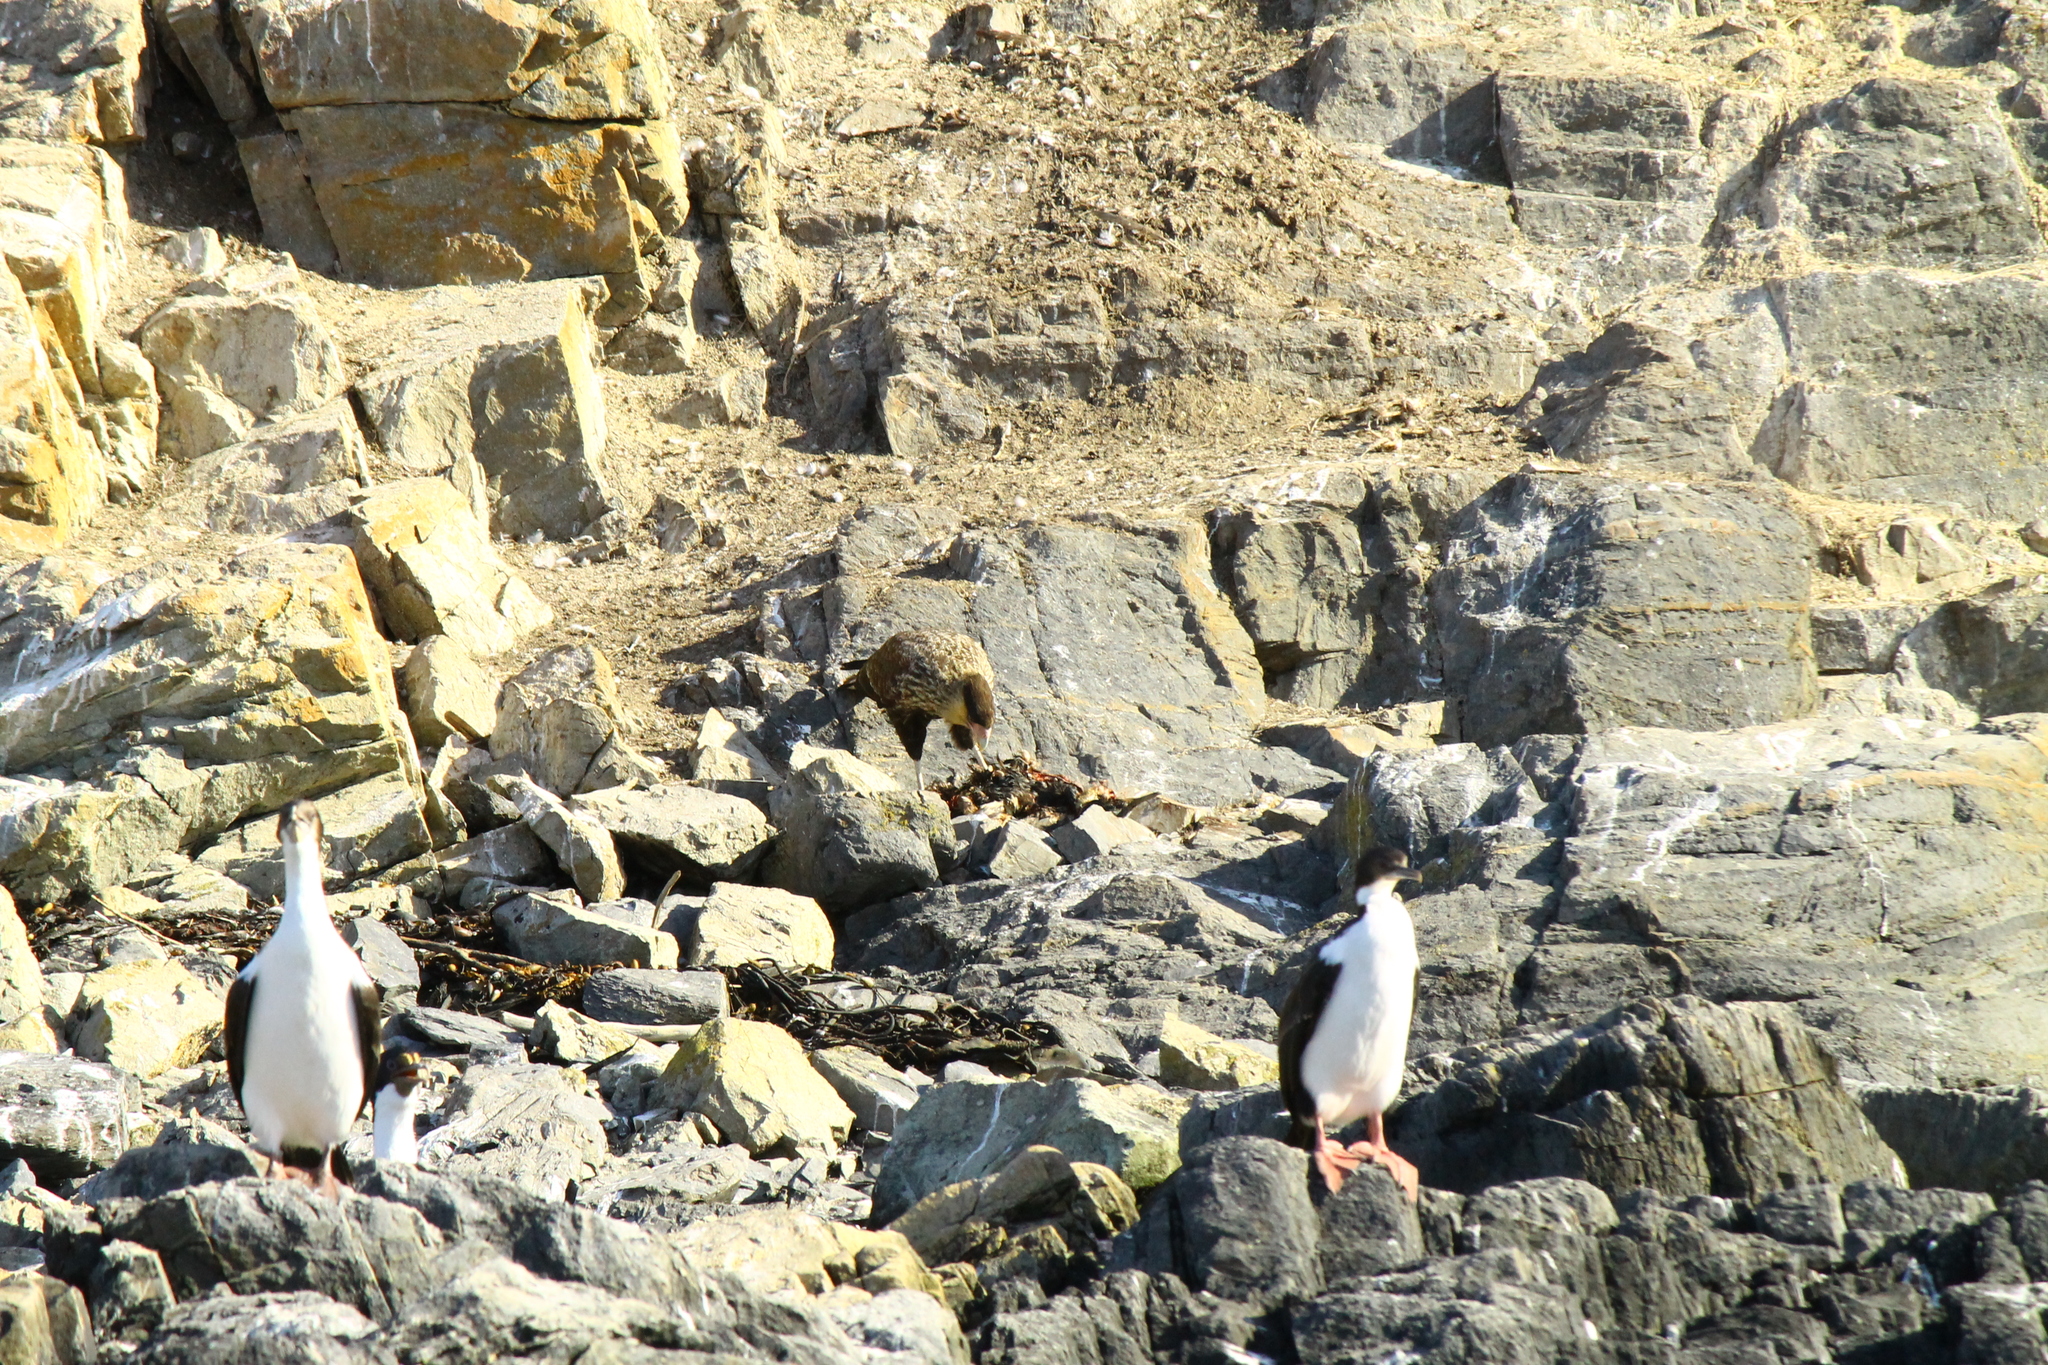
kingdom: Animalia
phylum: Chordata
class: Aves
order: Falconiformes
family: Falconidae
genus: Caracara
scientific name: Caracara plancus
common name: Southern caracara
